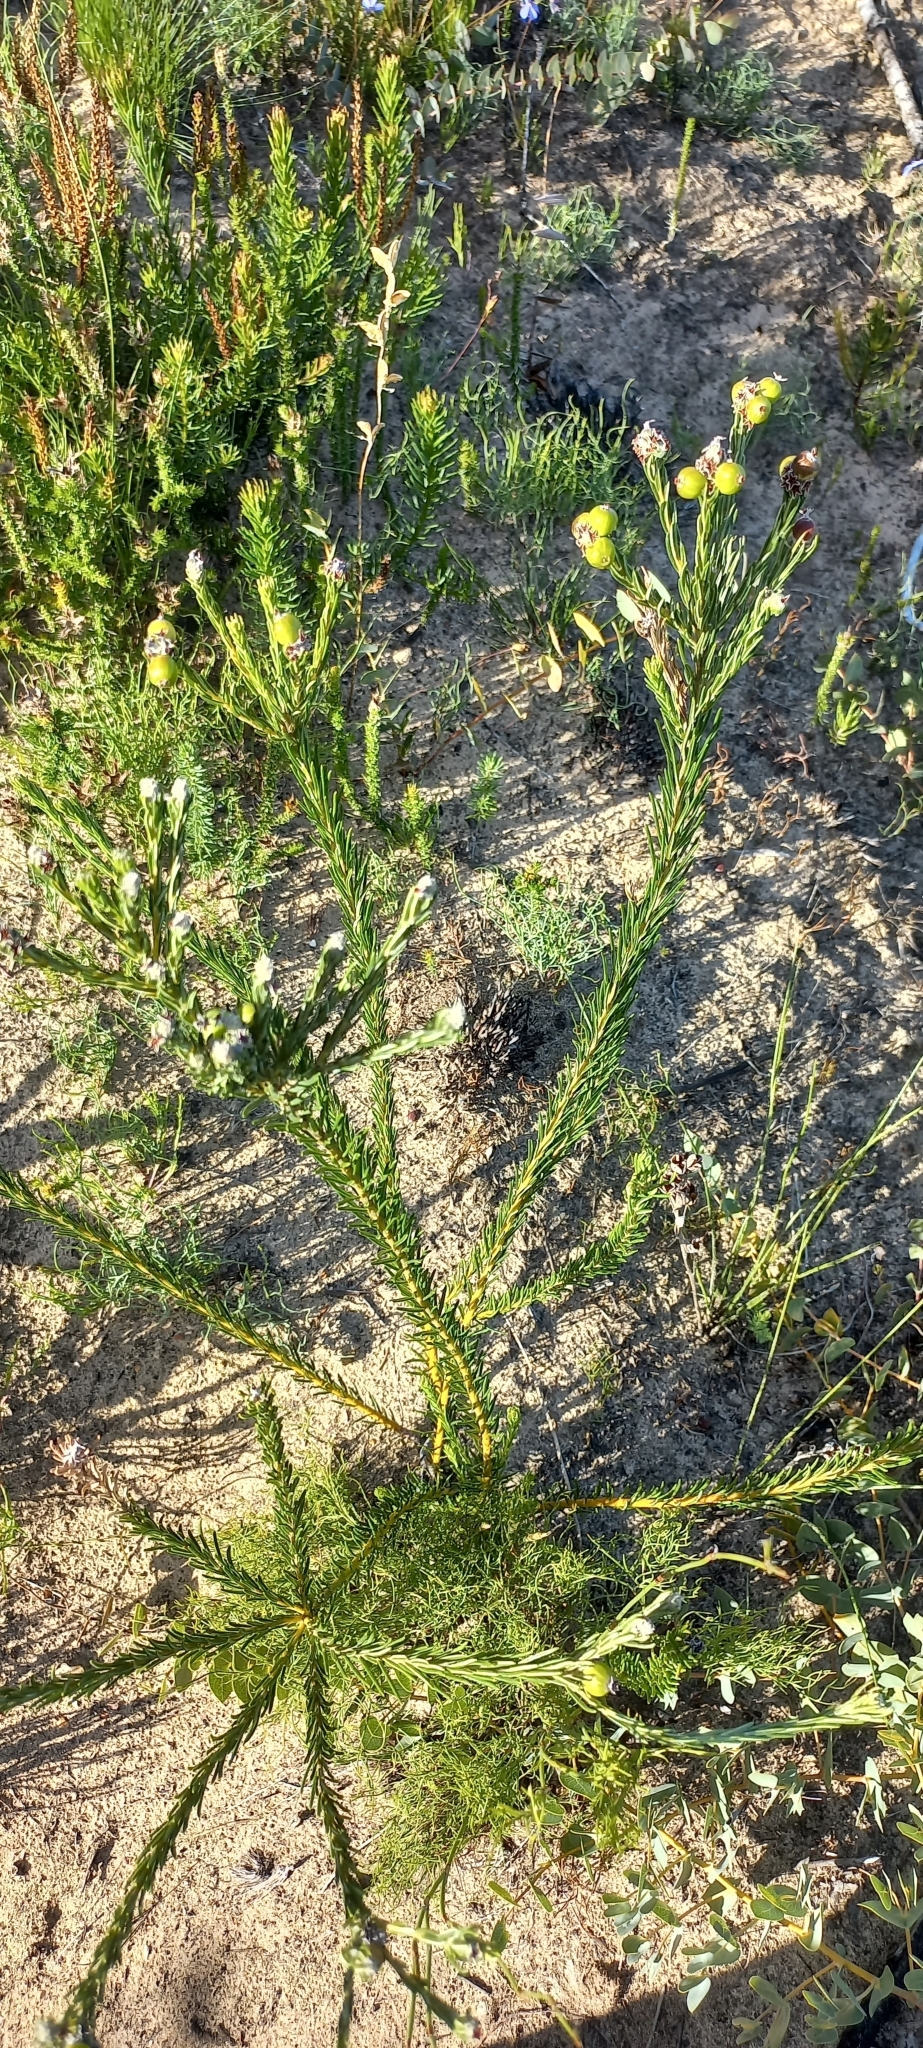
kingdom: Plantae
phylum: Tracheophyta
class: Magnoliopsida
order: Rosales
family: Rhamnaceae
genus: Phylica
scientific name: Phylica imberbis
